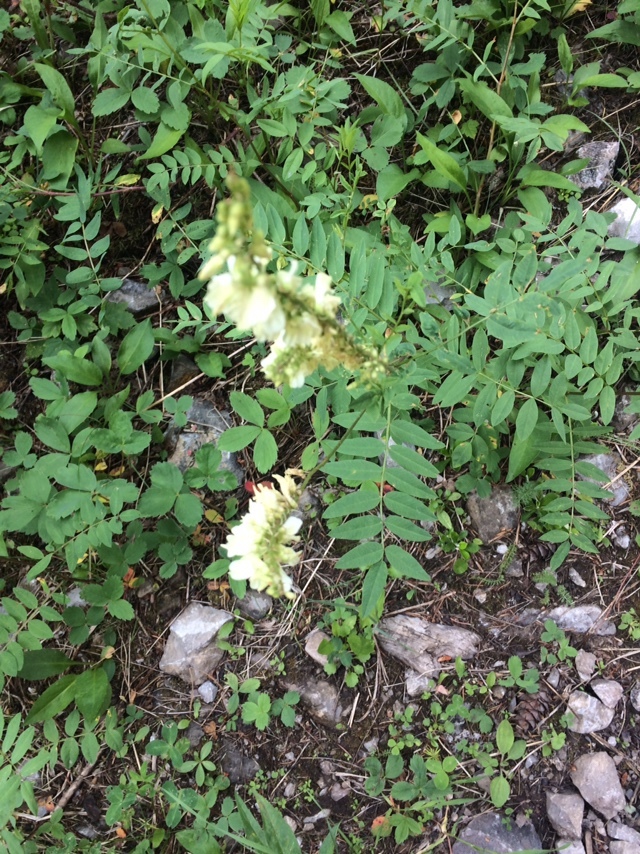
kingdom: Plantae
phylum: Tracheophyta
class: Magnoliopsida
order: Fabales
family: Fabaceae
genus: Hedysarum
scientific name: Hedysarum sulphurescens
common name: Sulphur hedysarum
